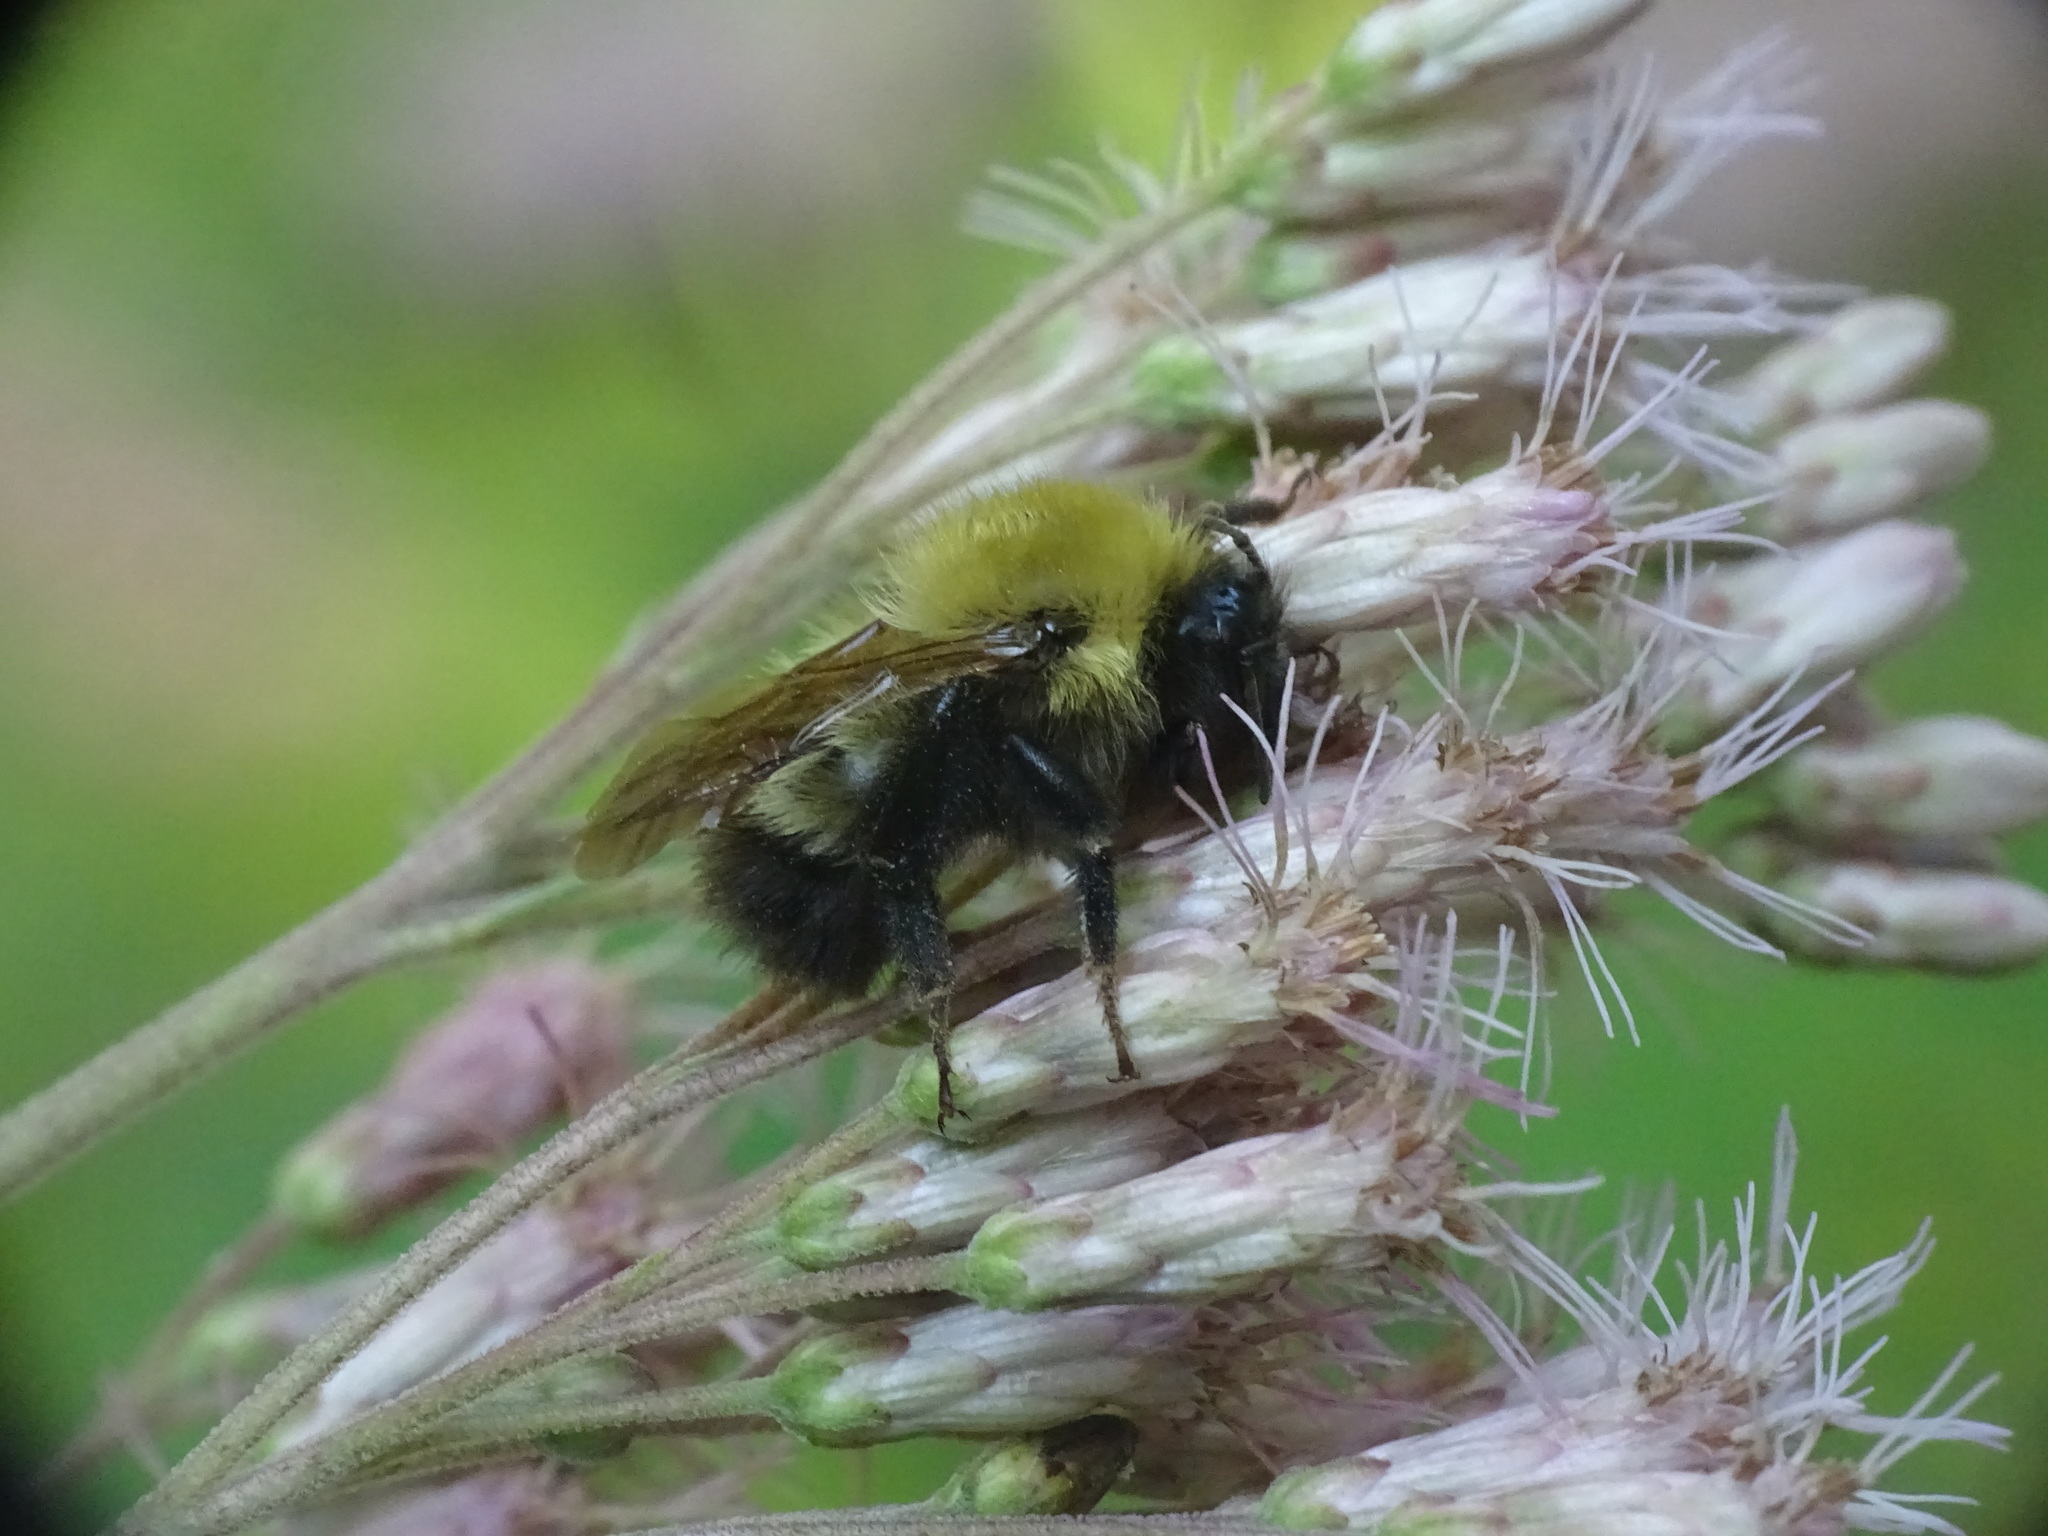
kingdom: Animalia
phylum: Arthropoda
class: Insecta
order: Hymenoptera
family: Apidae
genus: Bombus
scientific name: Bombus perplexus
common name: Confusing bumble bee
